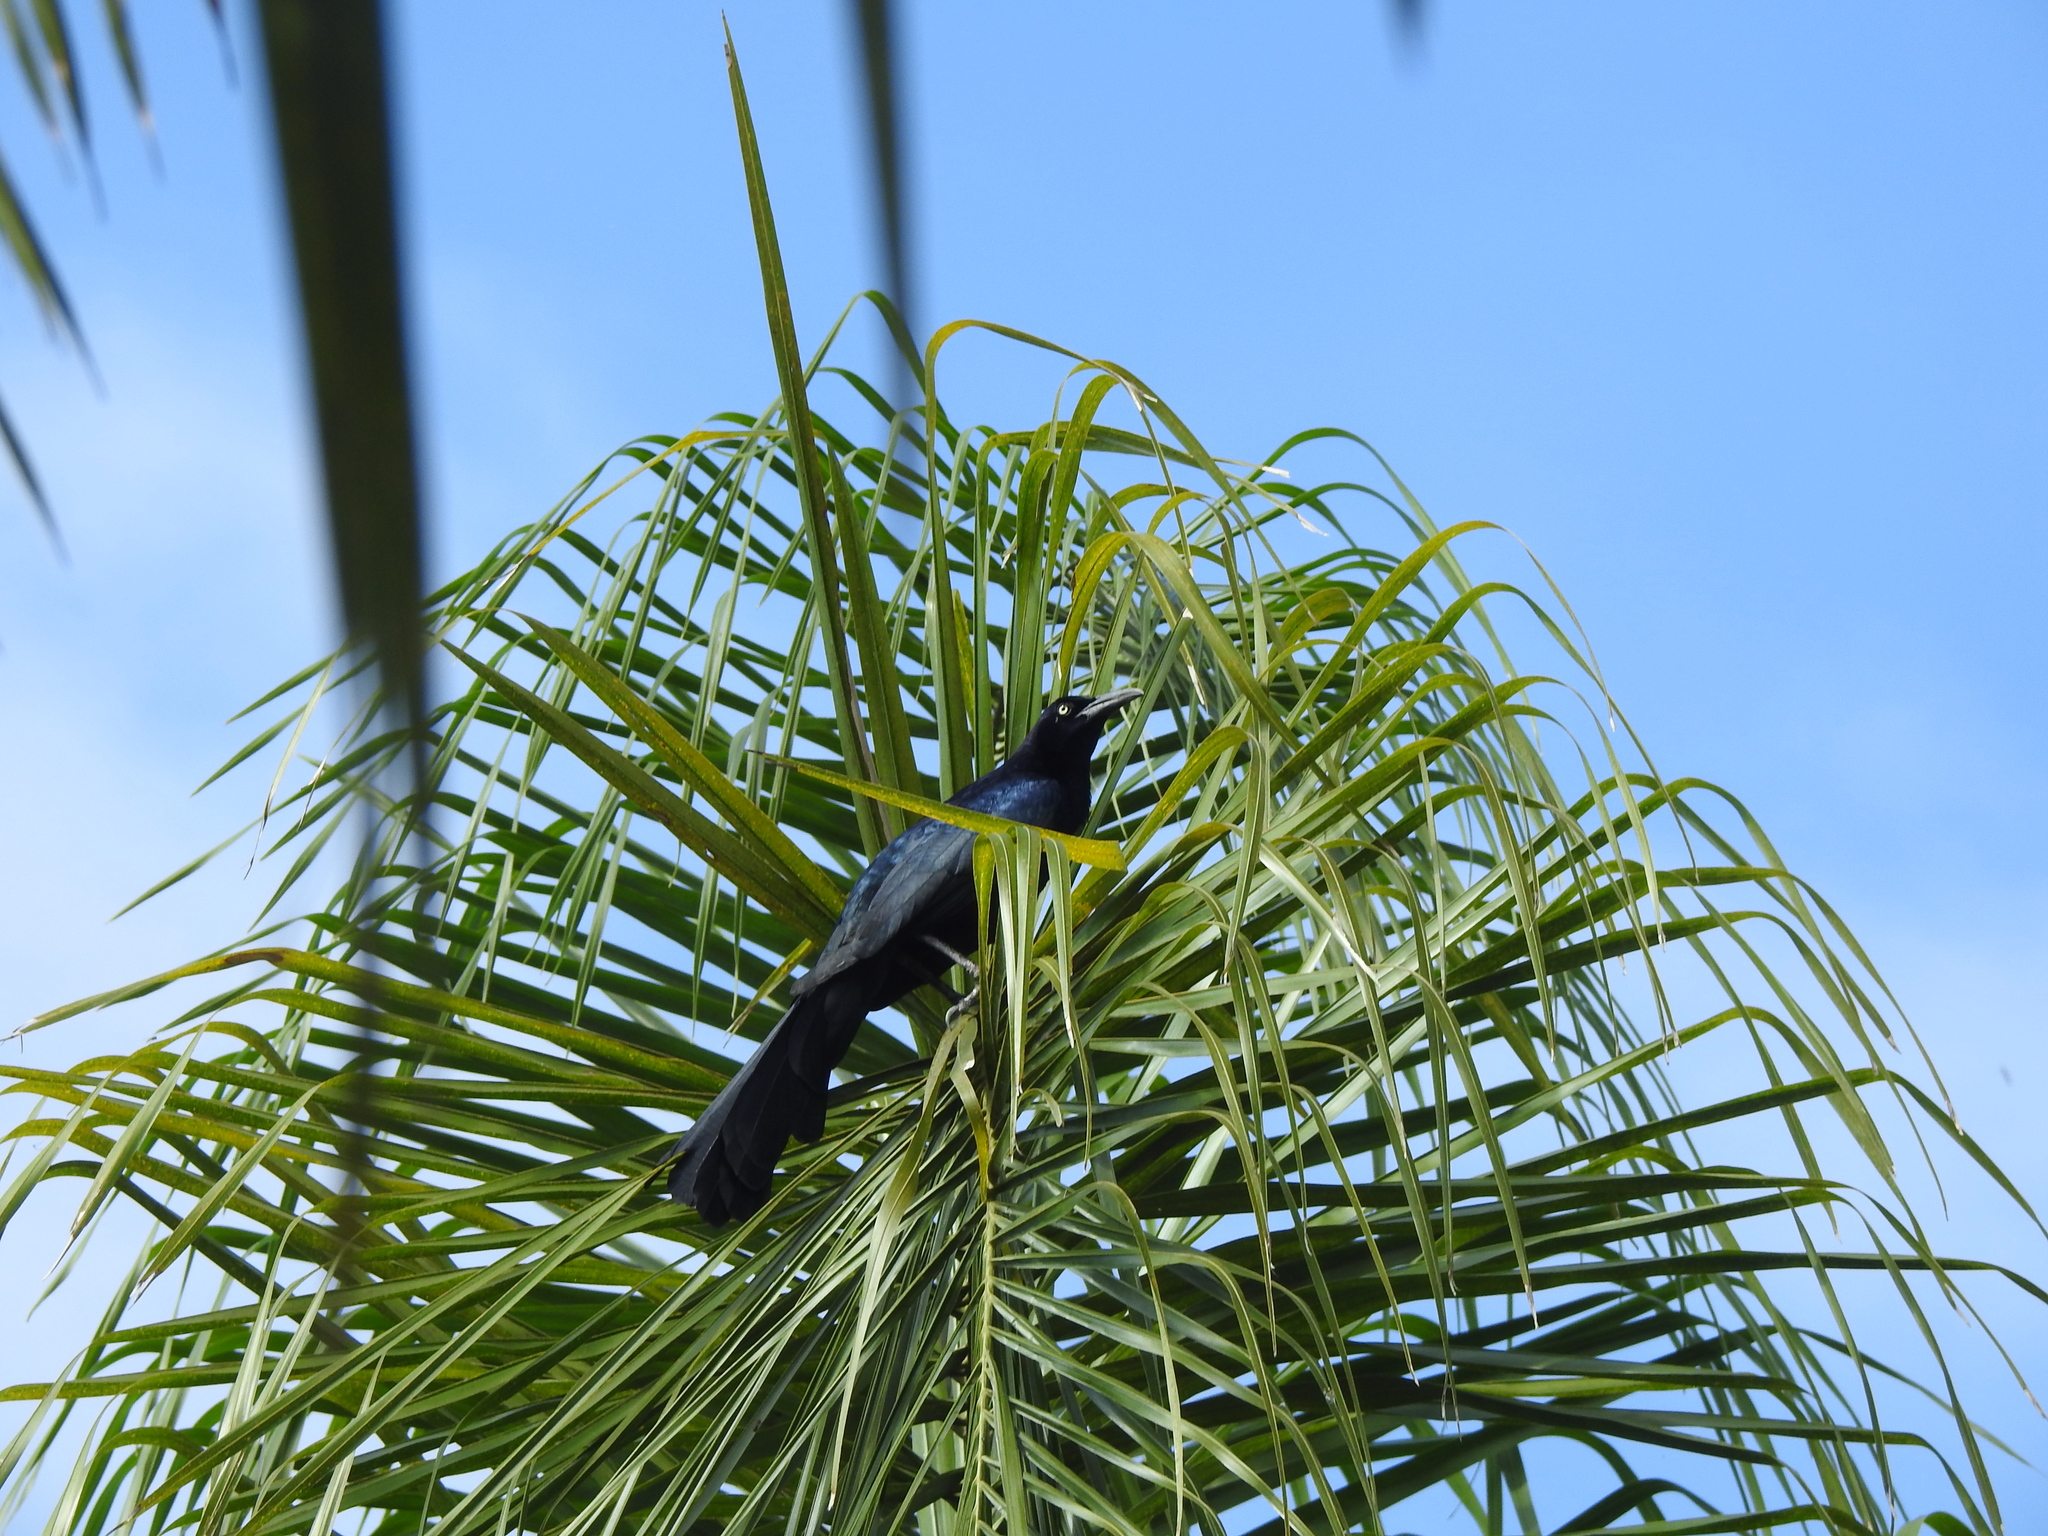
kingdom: Animalia
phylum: Chordata
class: Aves
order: Passeriformes
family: Icteridae
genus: Quiscalus
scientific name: Quiscalus mexicanus
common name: Great-tailed grackle
